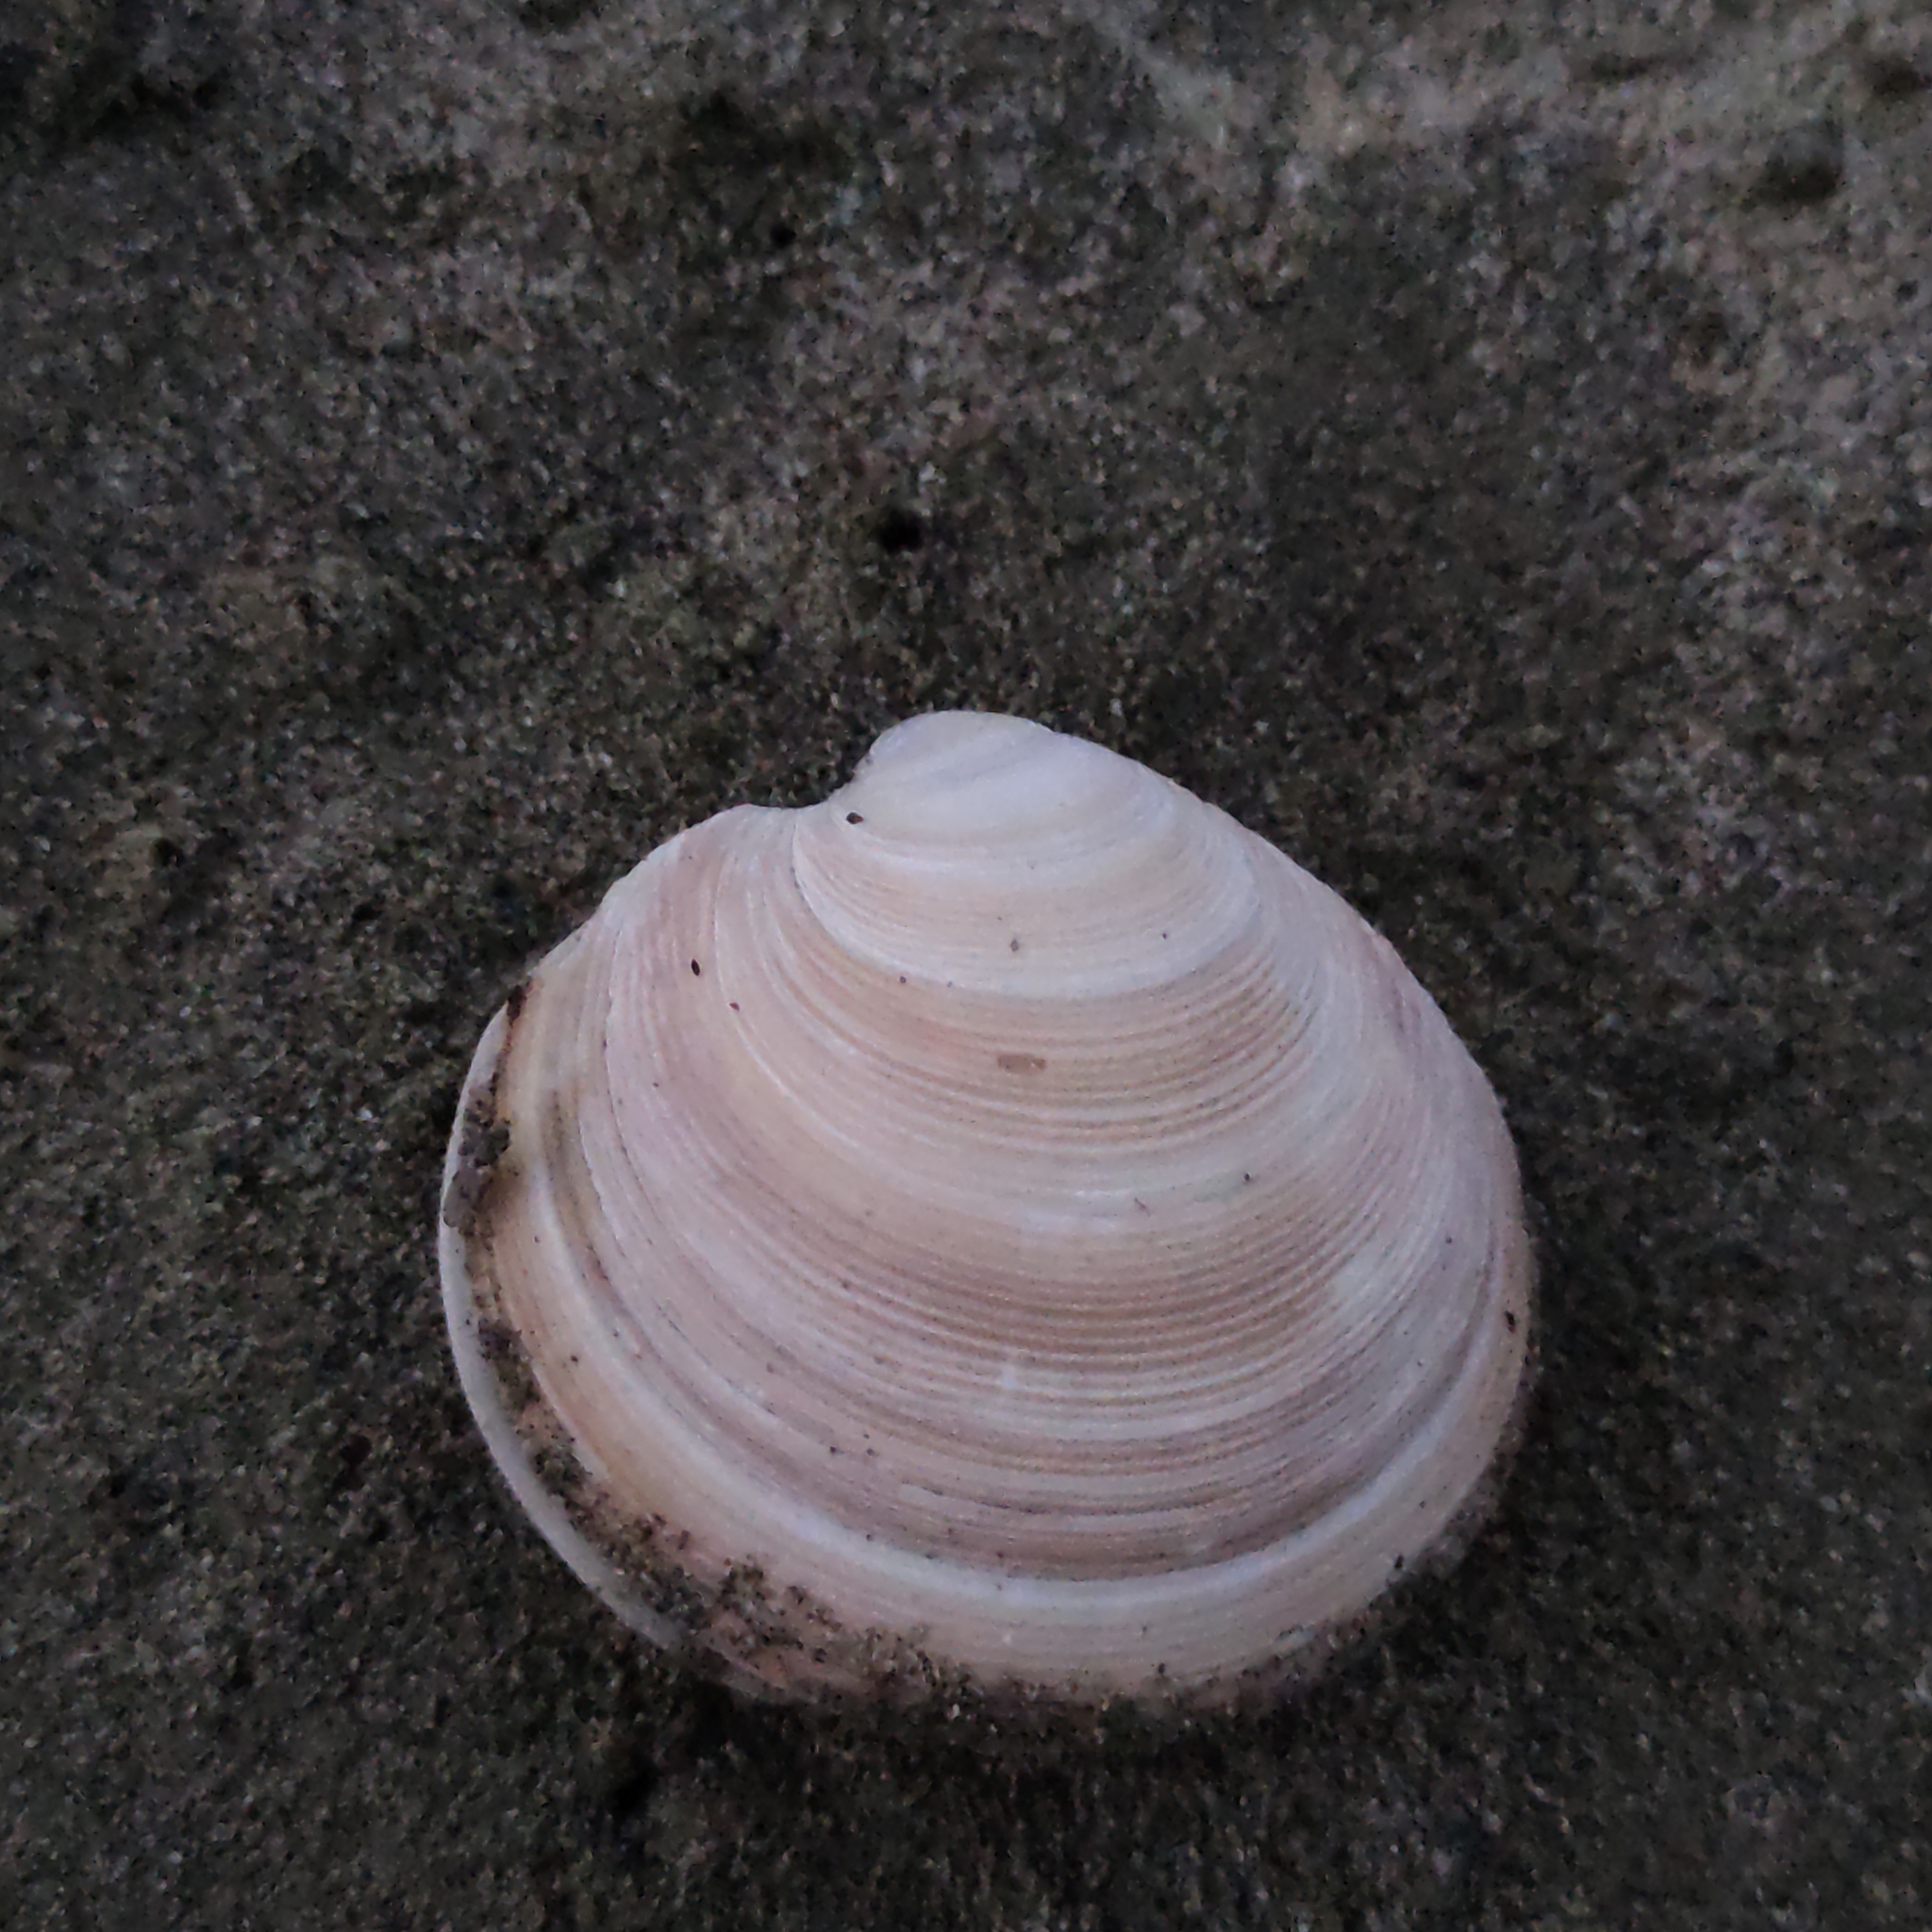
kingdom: Animalia
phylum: Mollusca
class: Bivalvia
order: Venerida
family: Veneridae
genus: Dosinia
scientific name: Dosinia anus
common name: Old-woman dosinia
